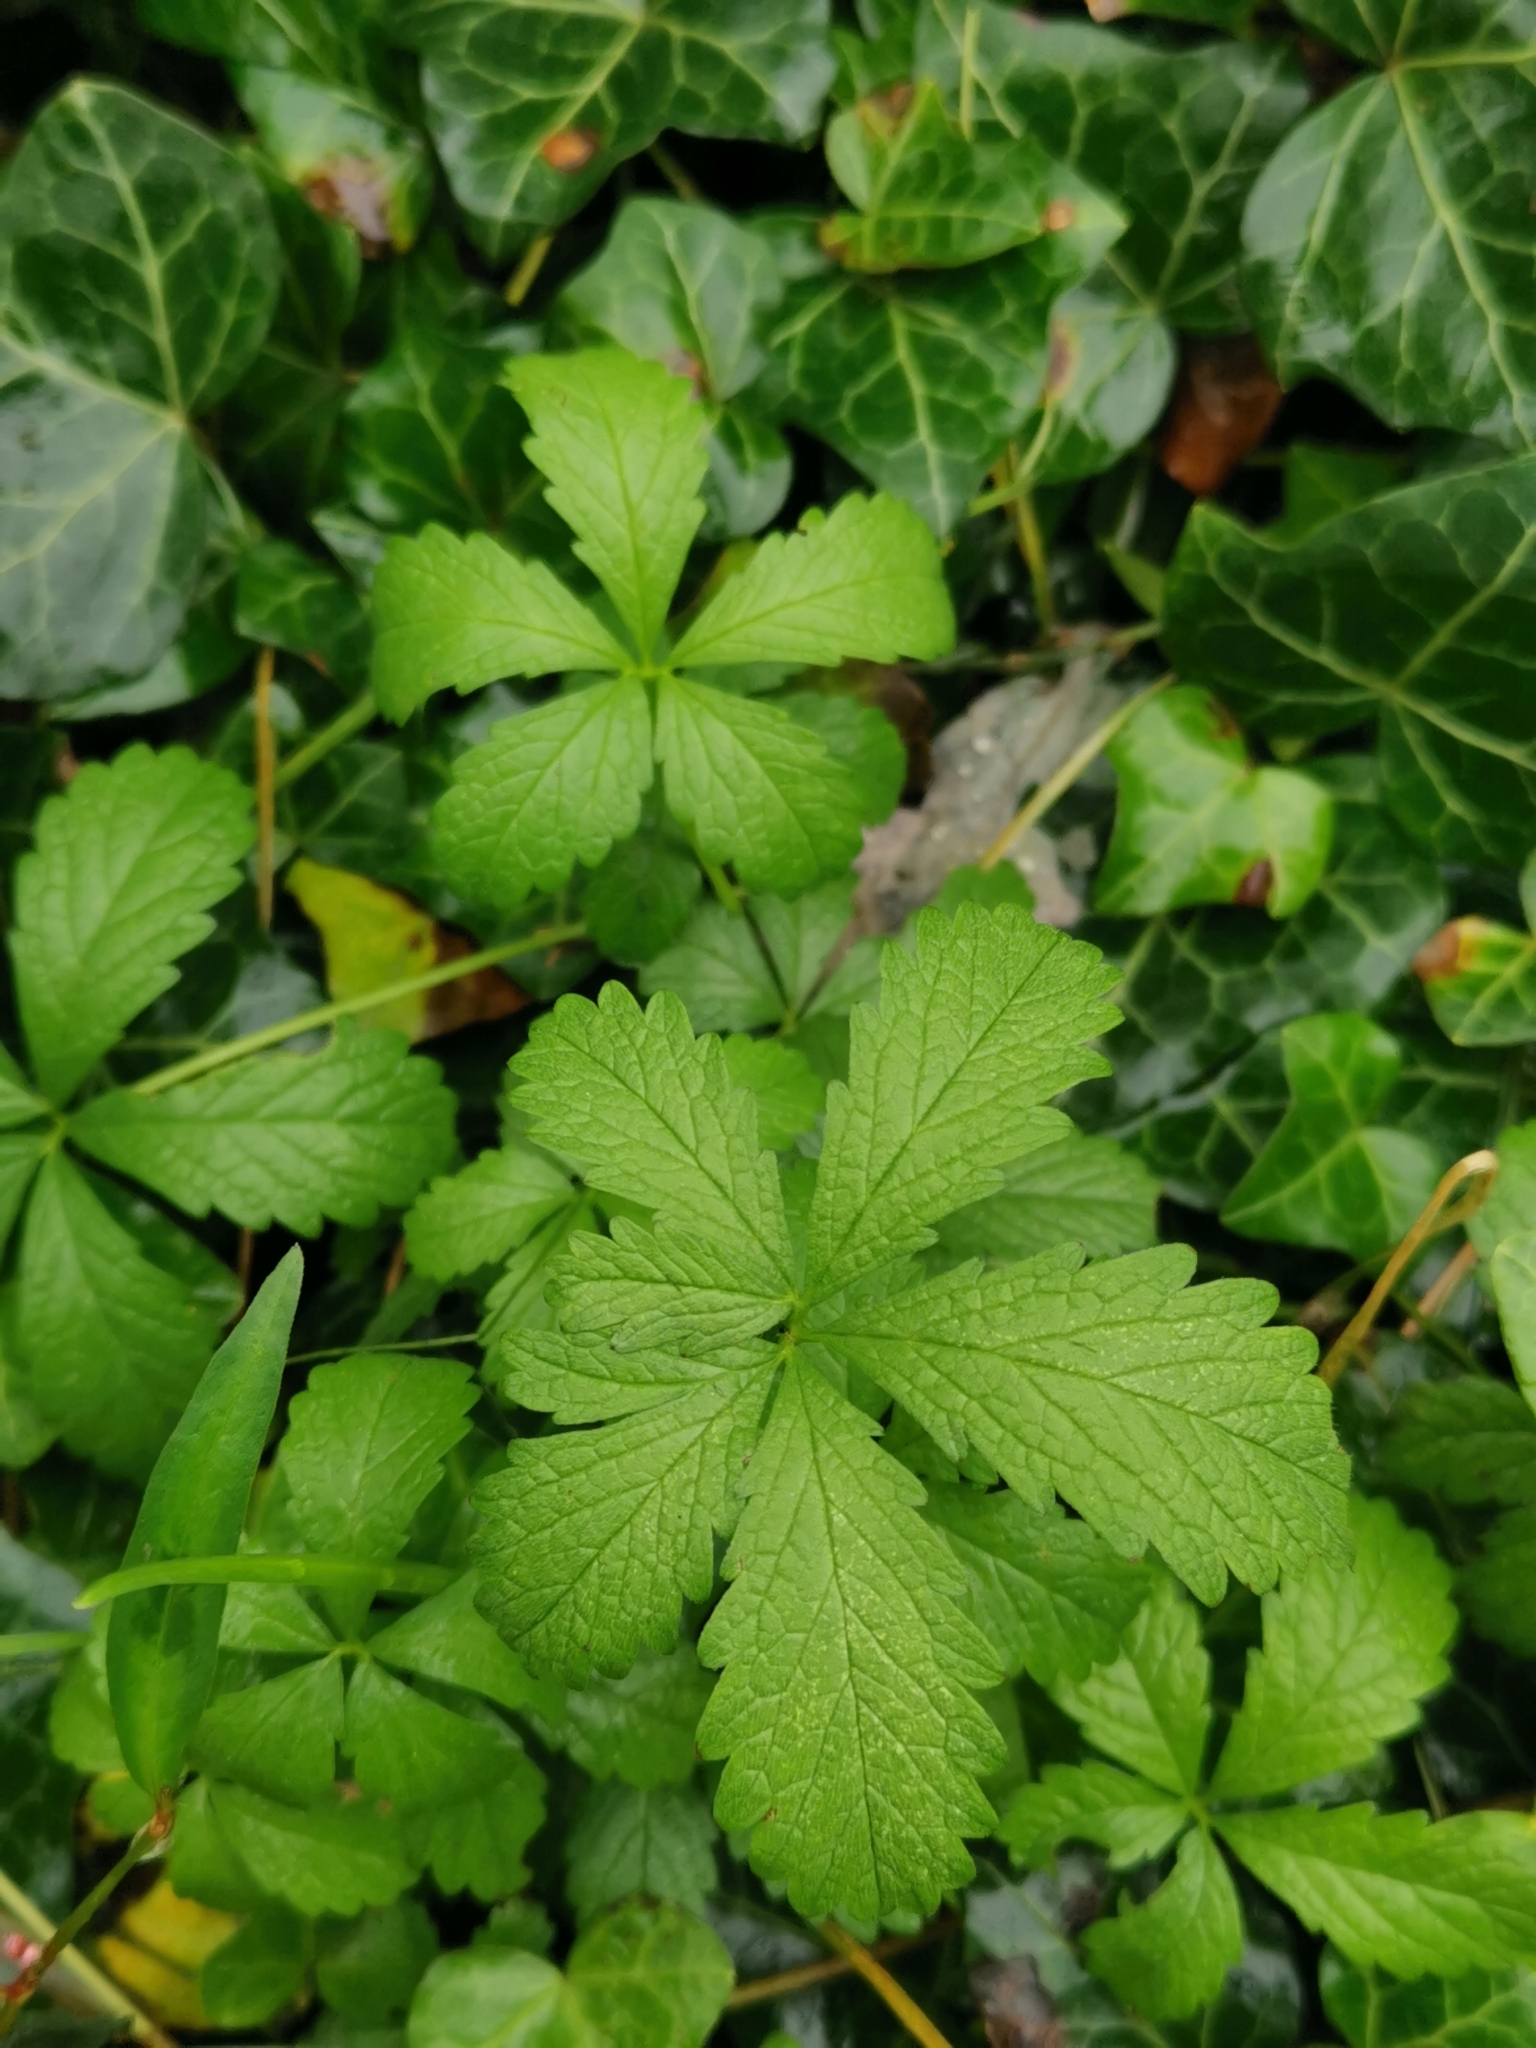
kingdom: Plantae
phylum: Tracheophyta
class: Magnoliopsida
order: Rosales
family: Rosaceae
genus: Potentilla
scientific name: Potentilla reptans
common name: Creeping cinquefoil
